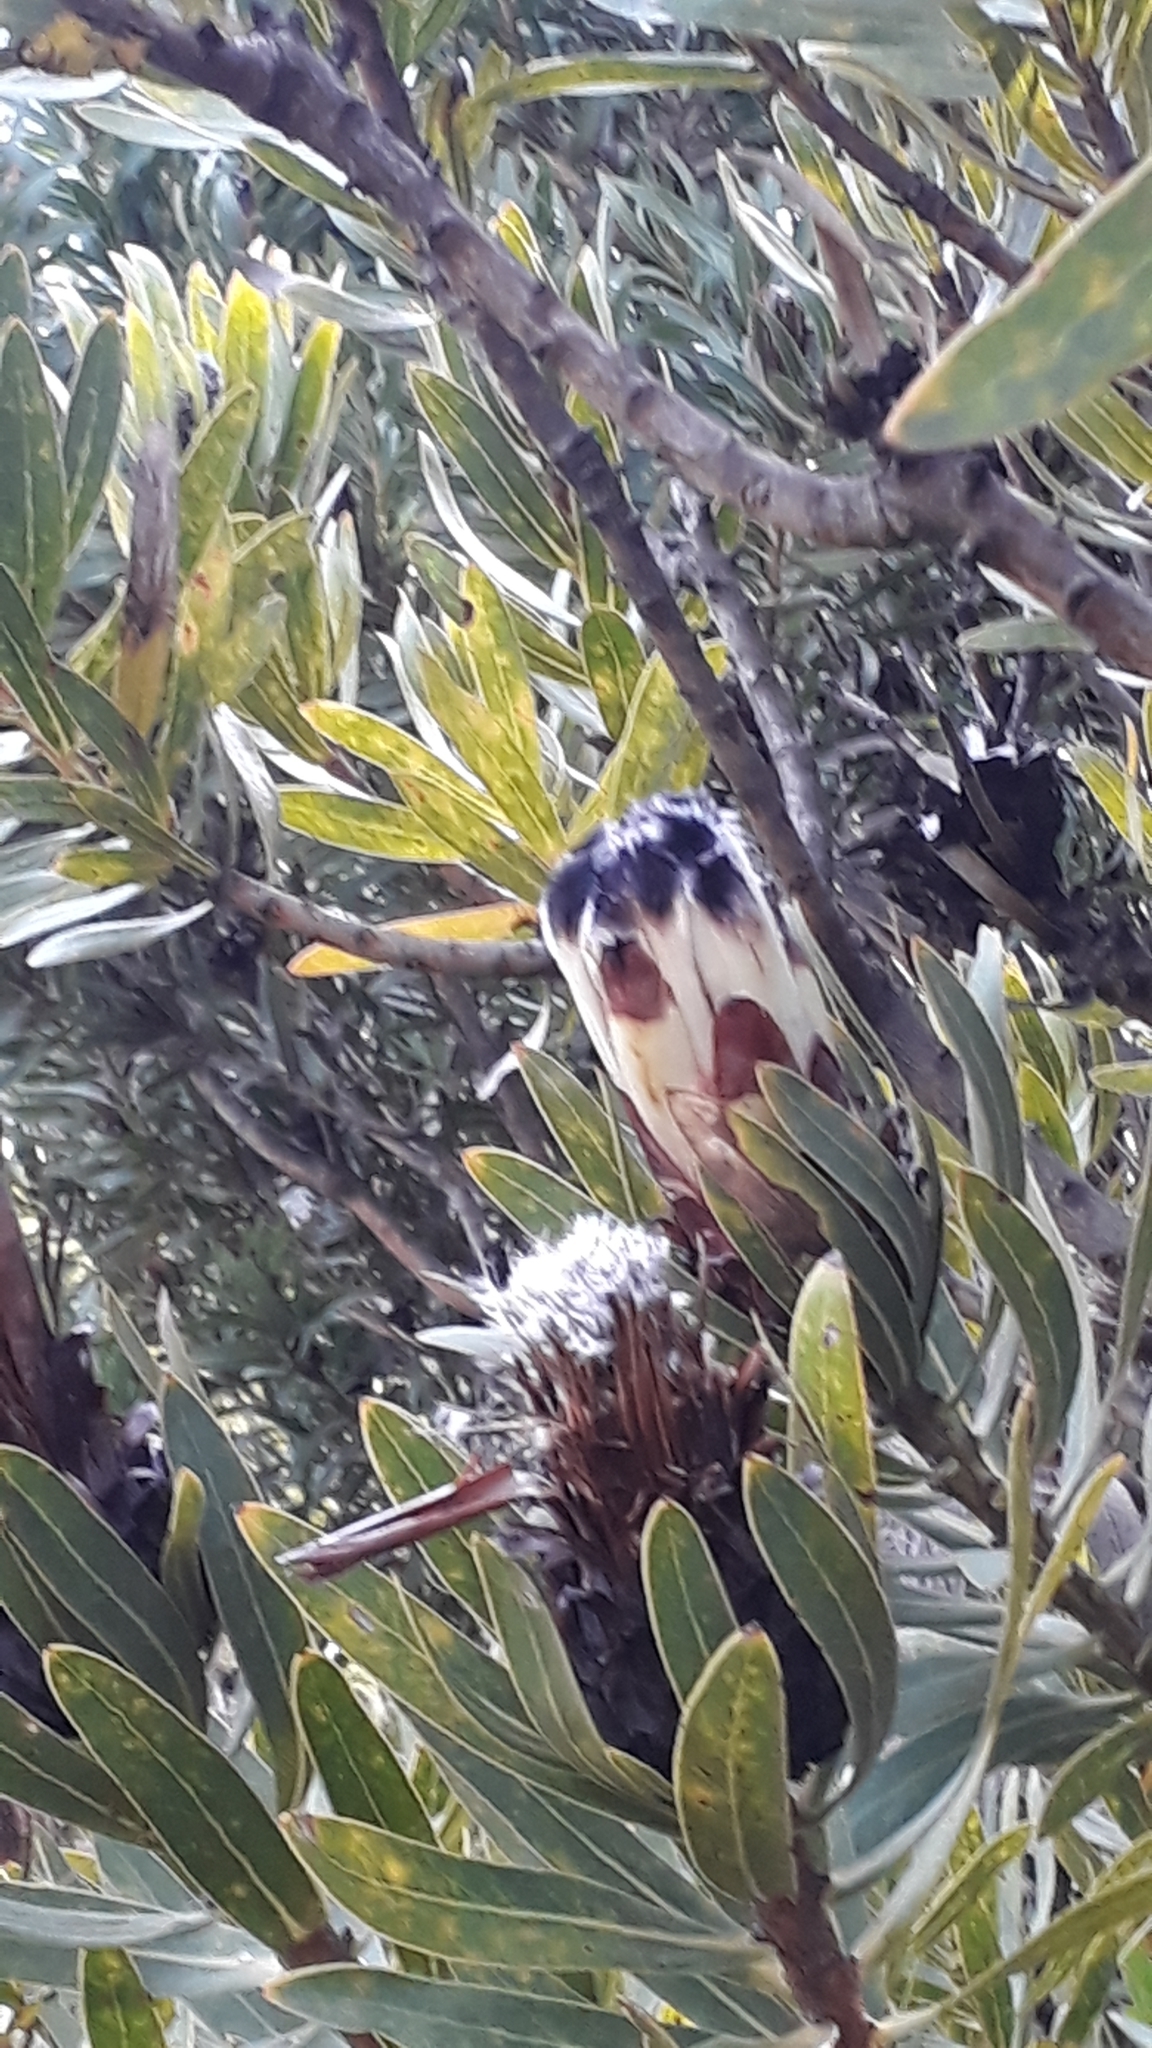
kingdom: Plantae
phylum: Tracheophyta
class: Magnoliopsida
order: Proteales
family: Proteaceae
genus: Protea
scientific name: Protea lepidocarpodendron
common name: Black-bearded protea
